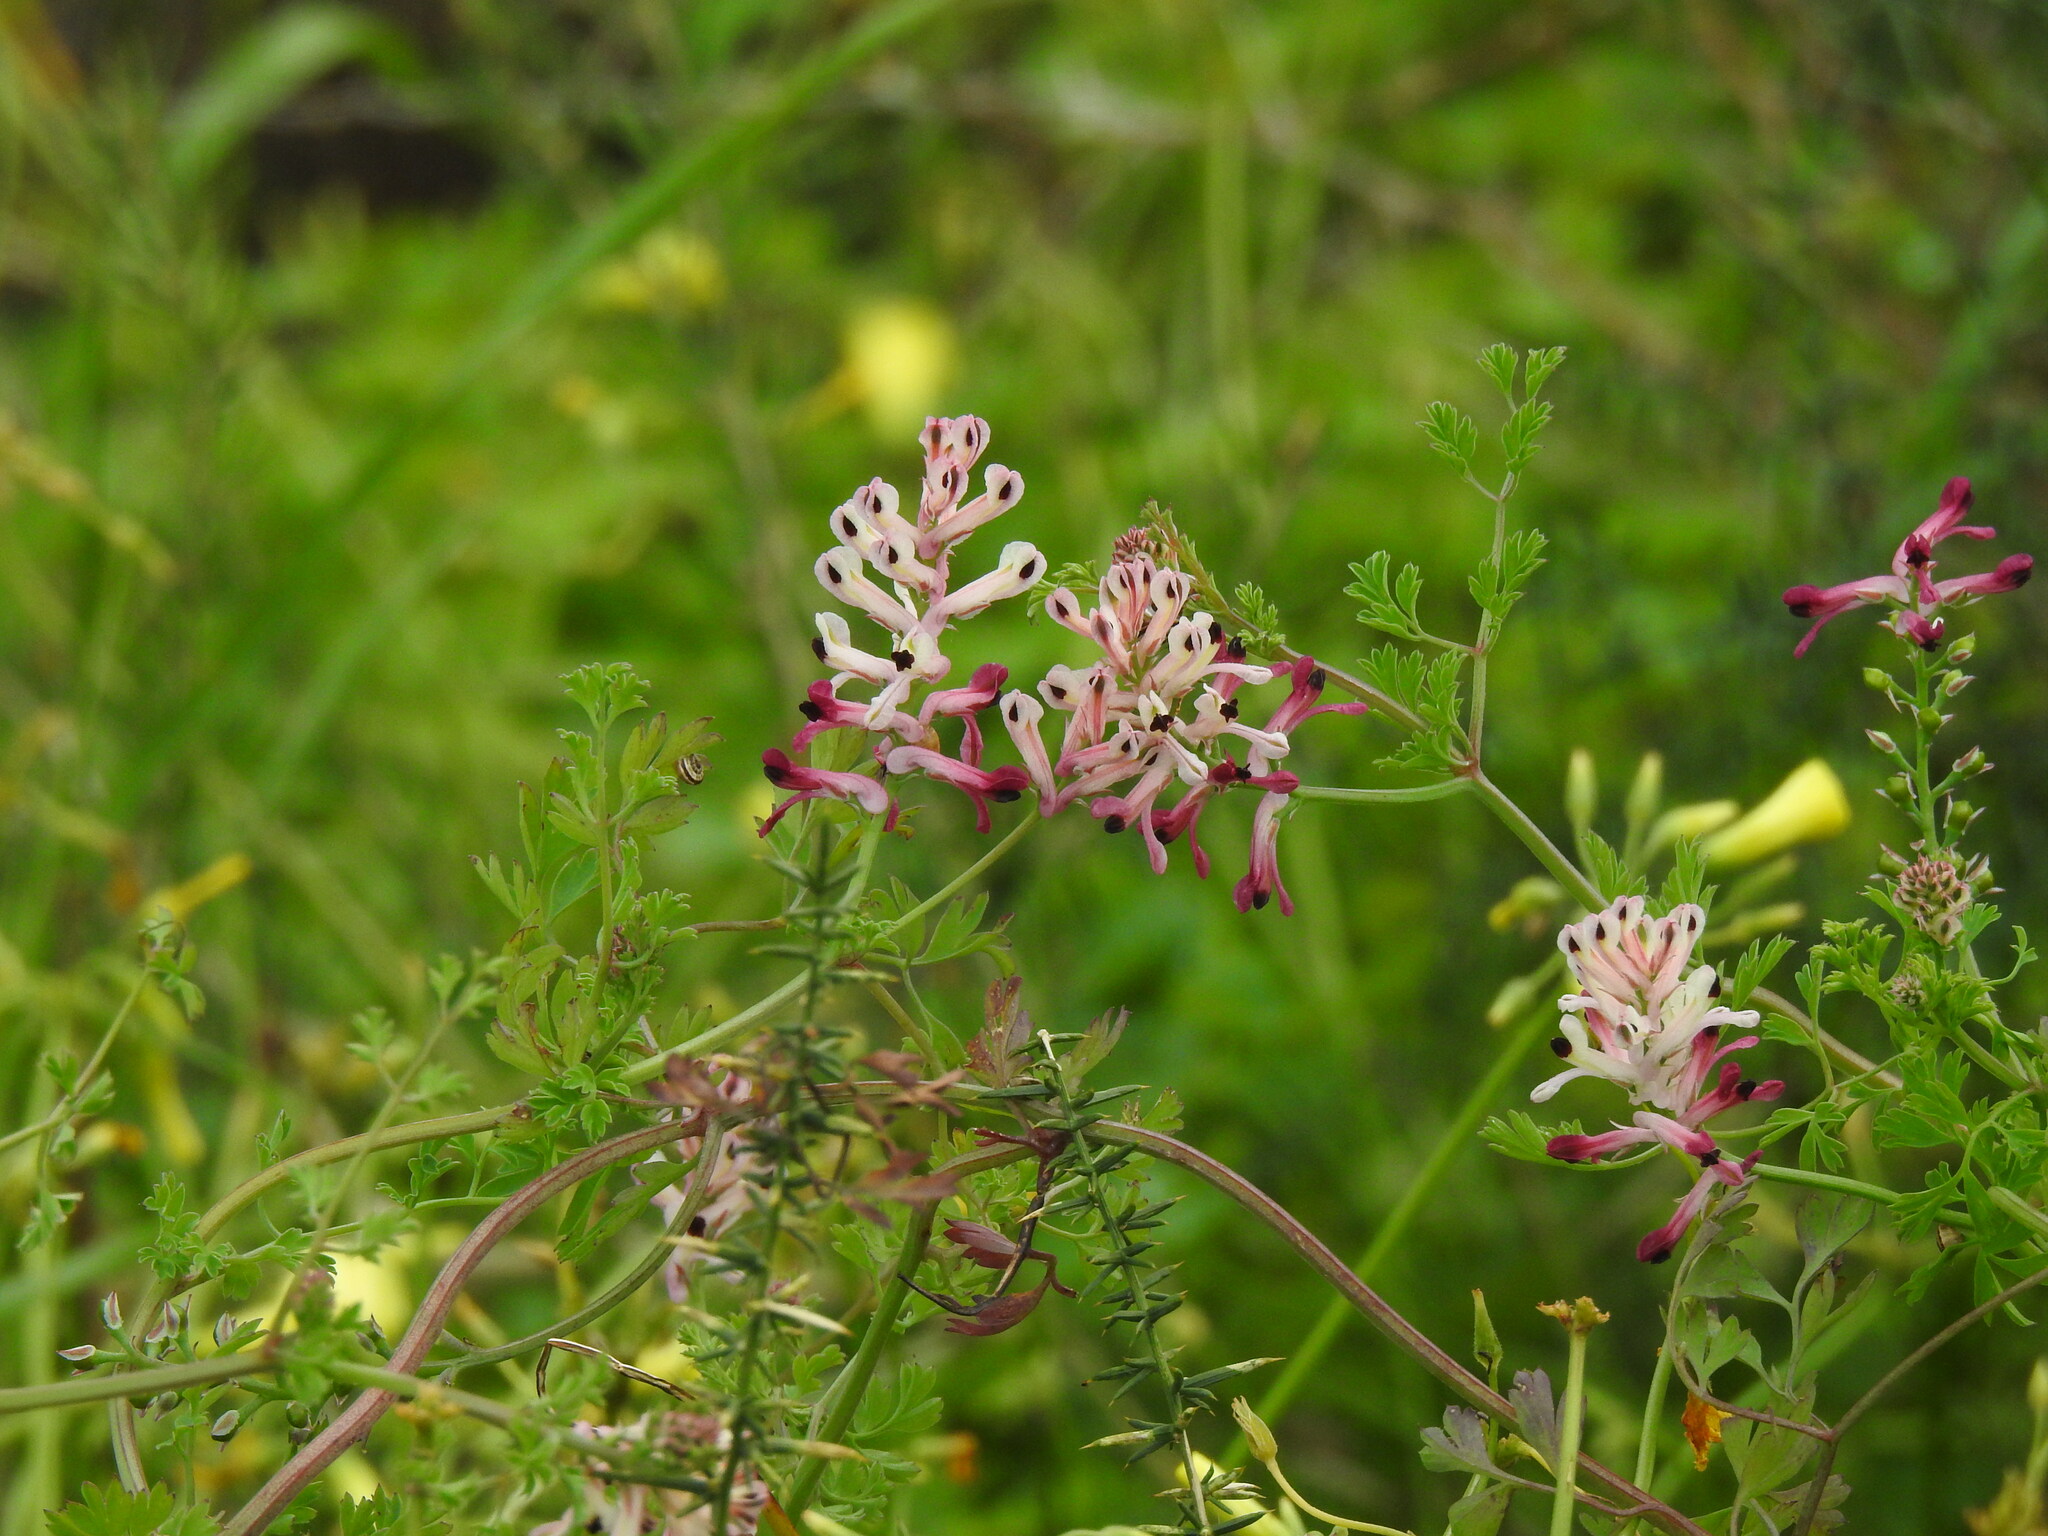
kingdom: Plantae
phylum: Tracheophyta
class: Magnoliopsida
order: Ranunculales
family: Papaveraceae
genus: Fumaria
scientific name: Fumaria agraria
